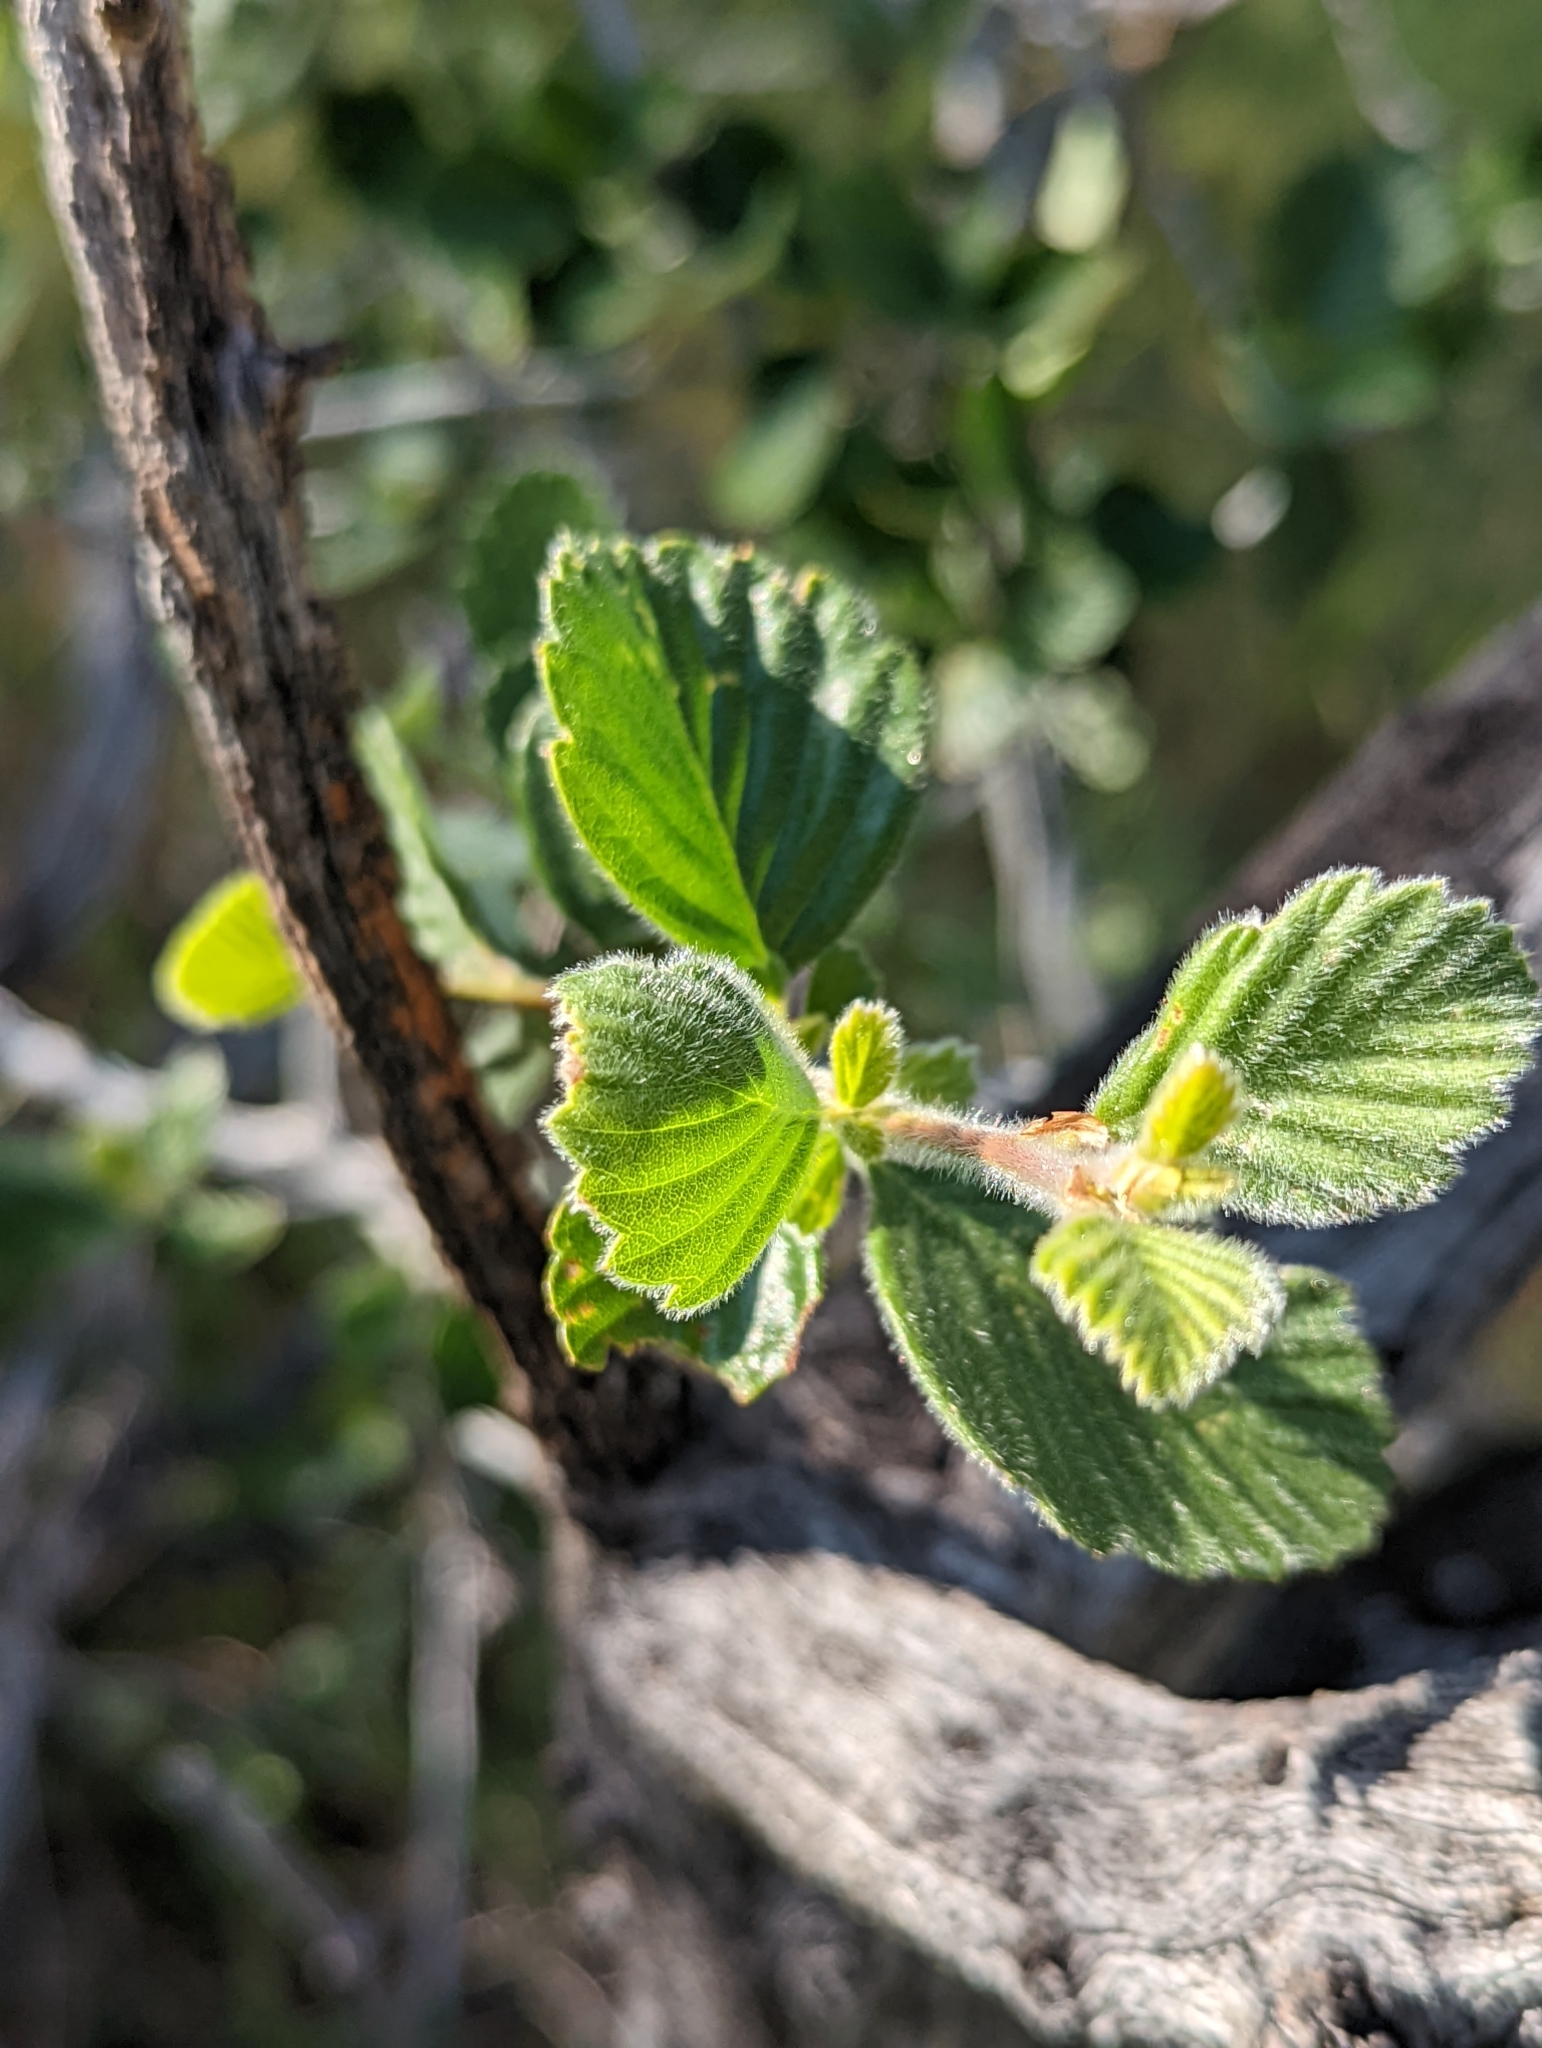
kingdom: Plantae
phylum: Tracheophyta
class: Magnoliopsida
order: Rosales
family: Rosaceae
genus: Cercocarpus
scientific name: Cercocarpus betuloides
